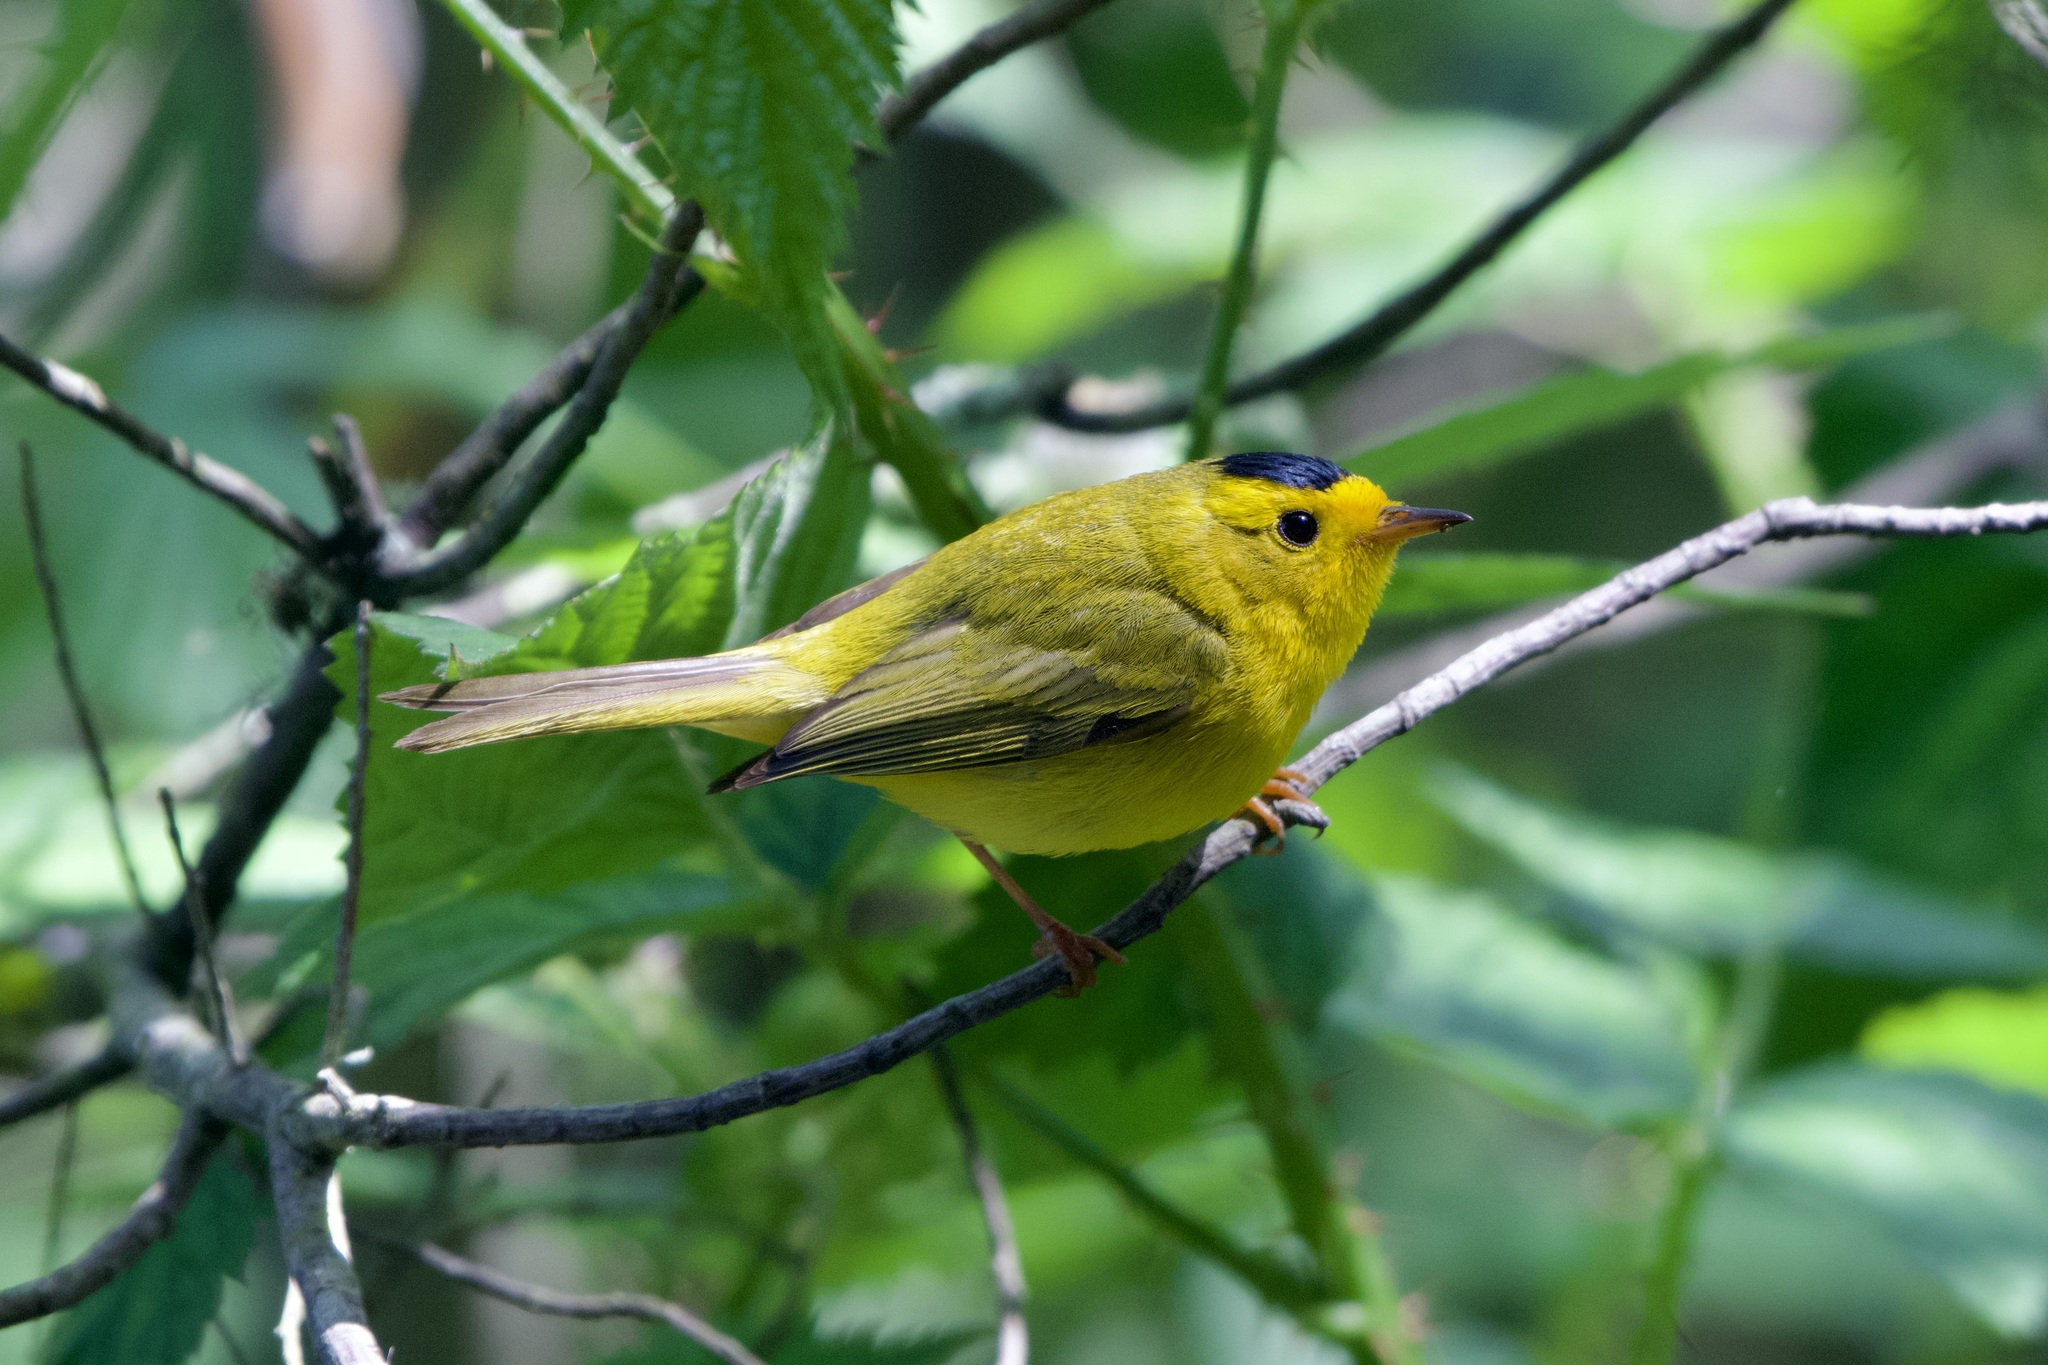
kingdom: Animalia
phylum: Chordata
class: Aves
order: Passeriformes
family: Parulidae
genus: Cardellina
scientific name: Cardellina pusilla
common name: Wilson's warbler
